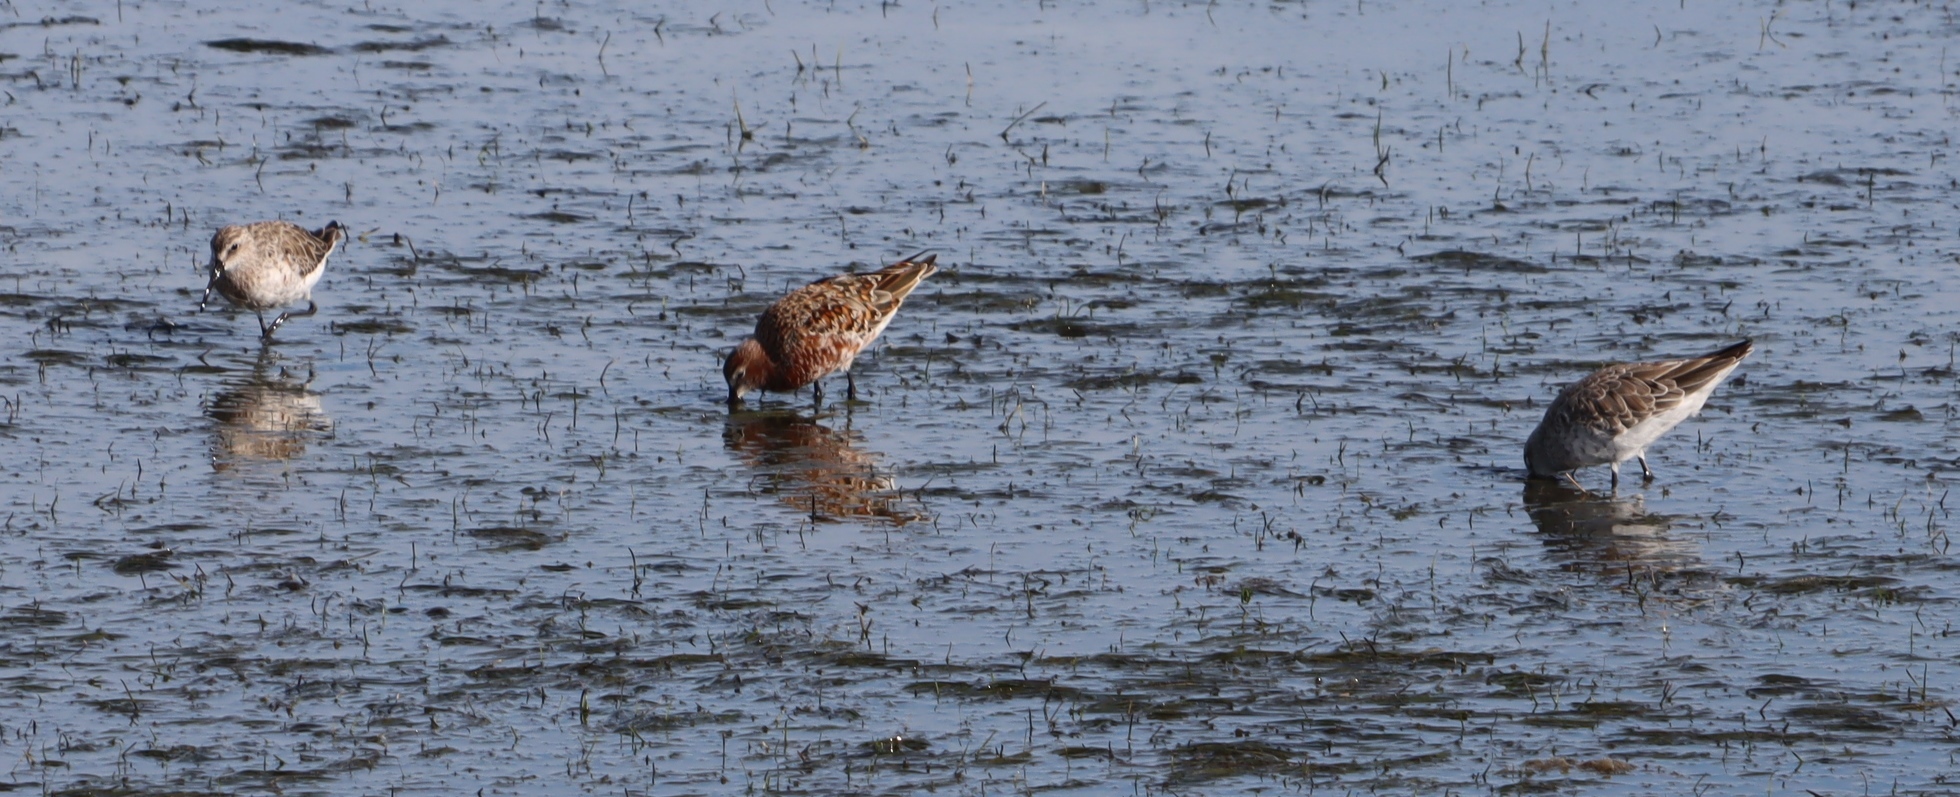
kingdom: Animalia
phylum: Chordata
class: Aves
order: Charadriiformes
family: Charadriidae
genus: Pluvialis
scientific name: Pluvialis squatarola
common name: Grey plover
